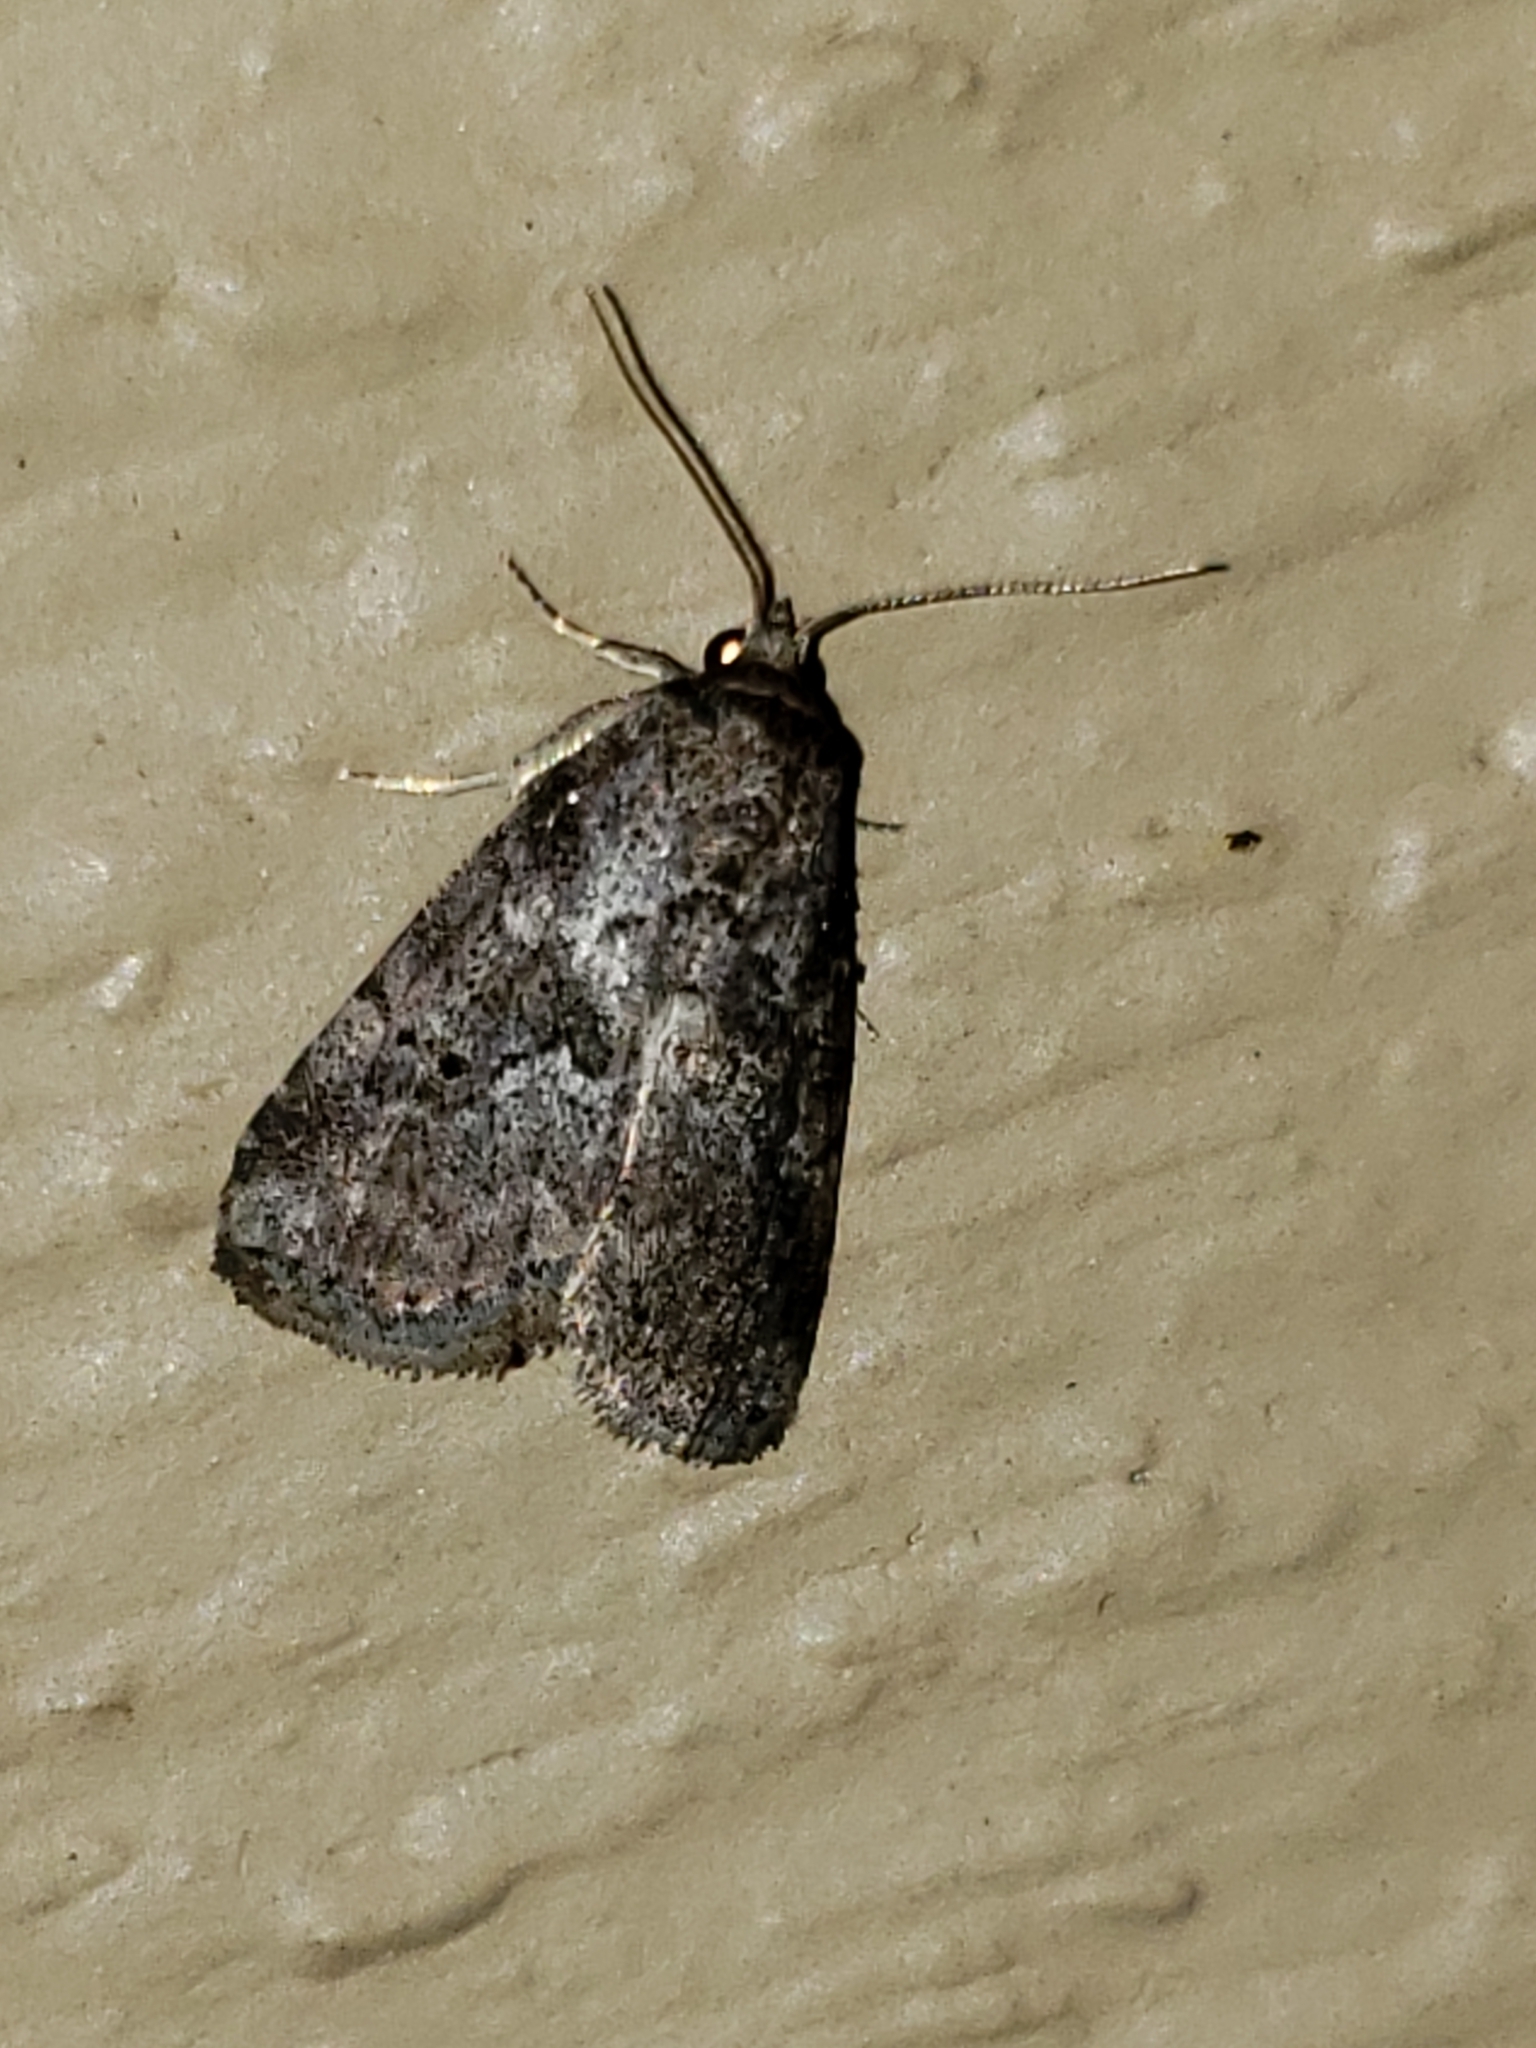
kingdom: Animalia
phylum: Arthropoda
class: Insecta
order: Lepidoptera
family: Erebidae
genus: Hyperstrotia
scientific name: Hyperstrotia nana
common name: White-lined graylet
